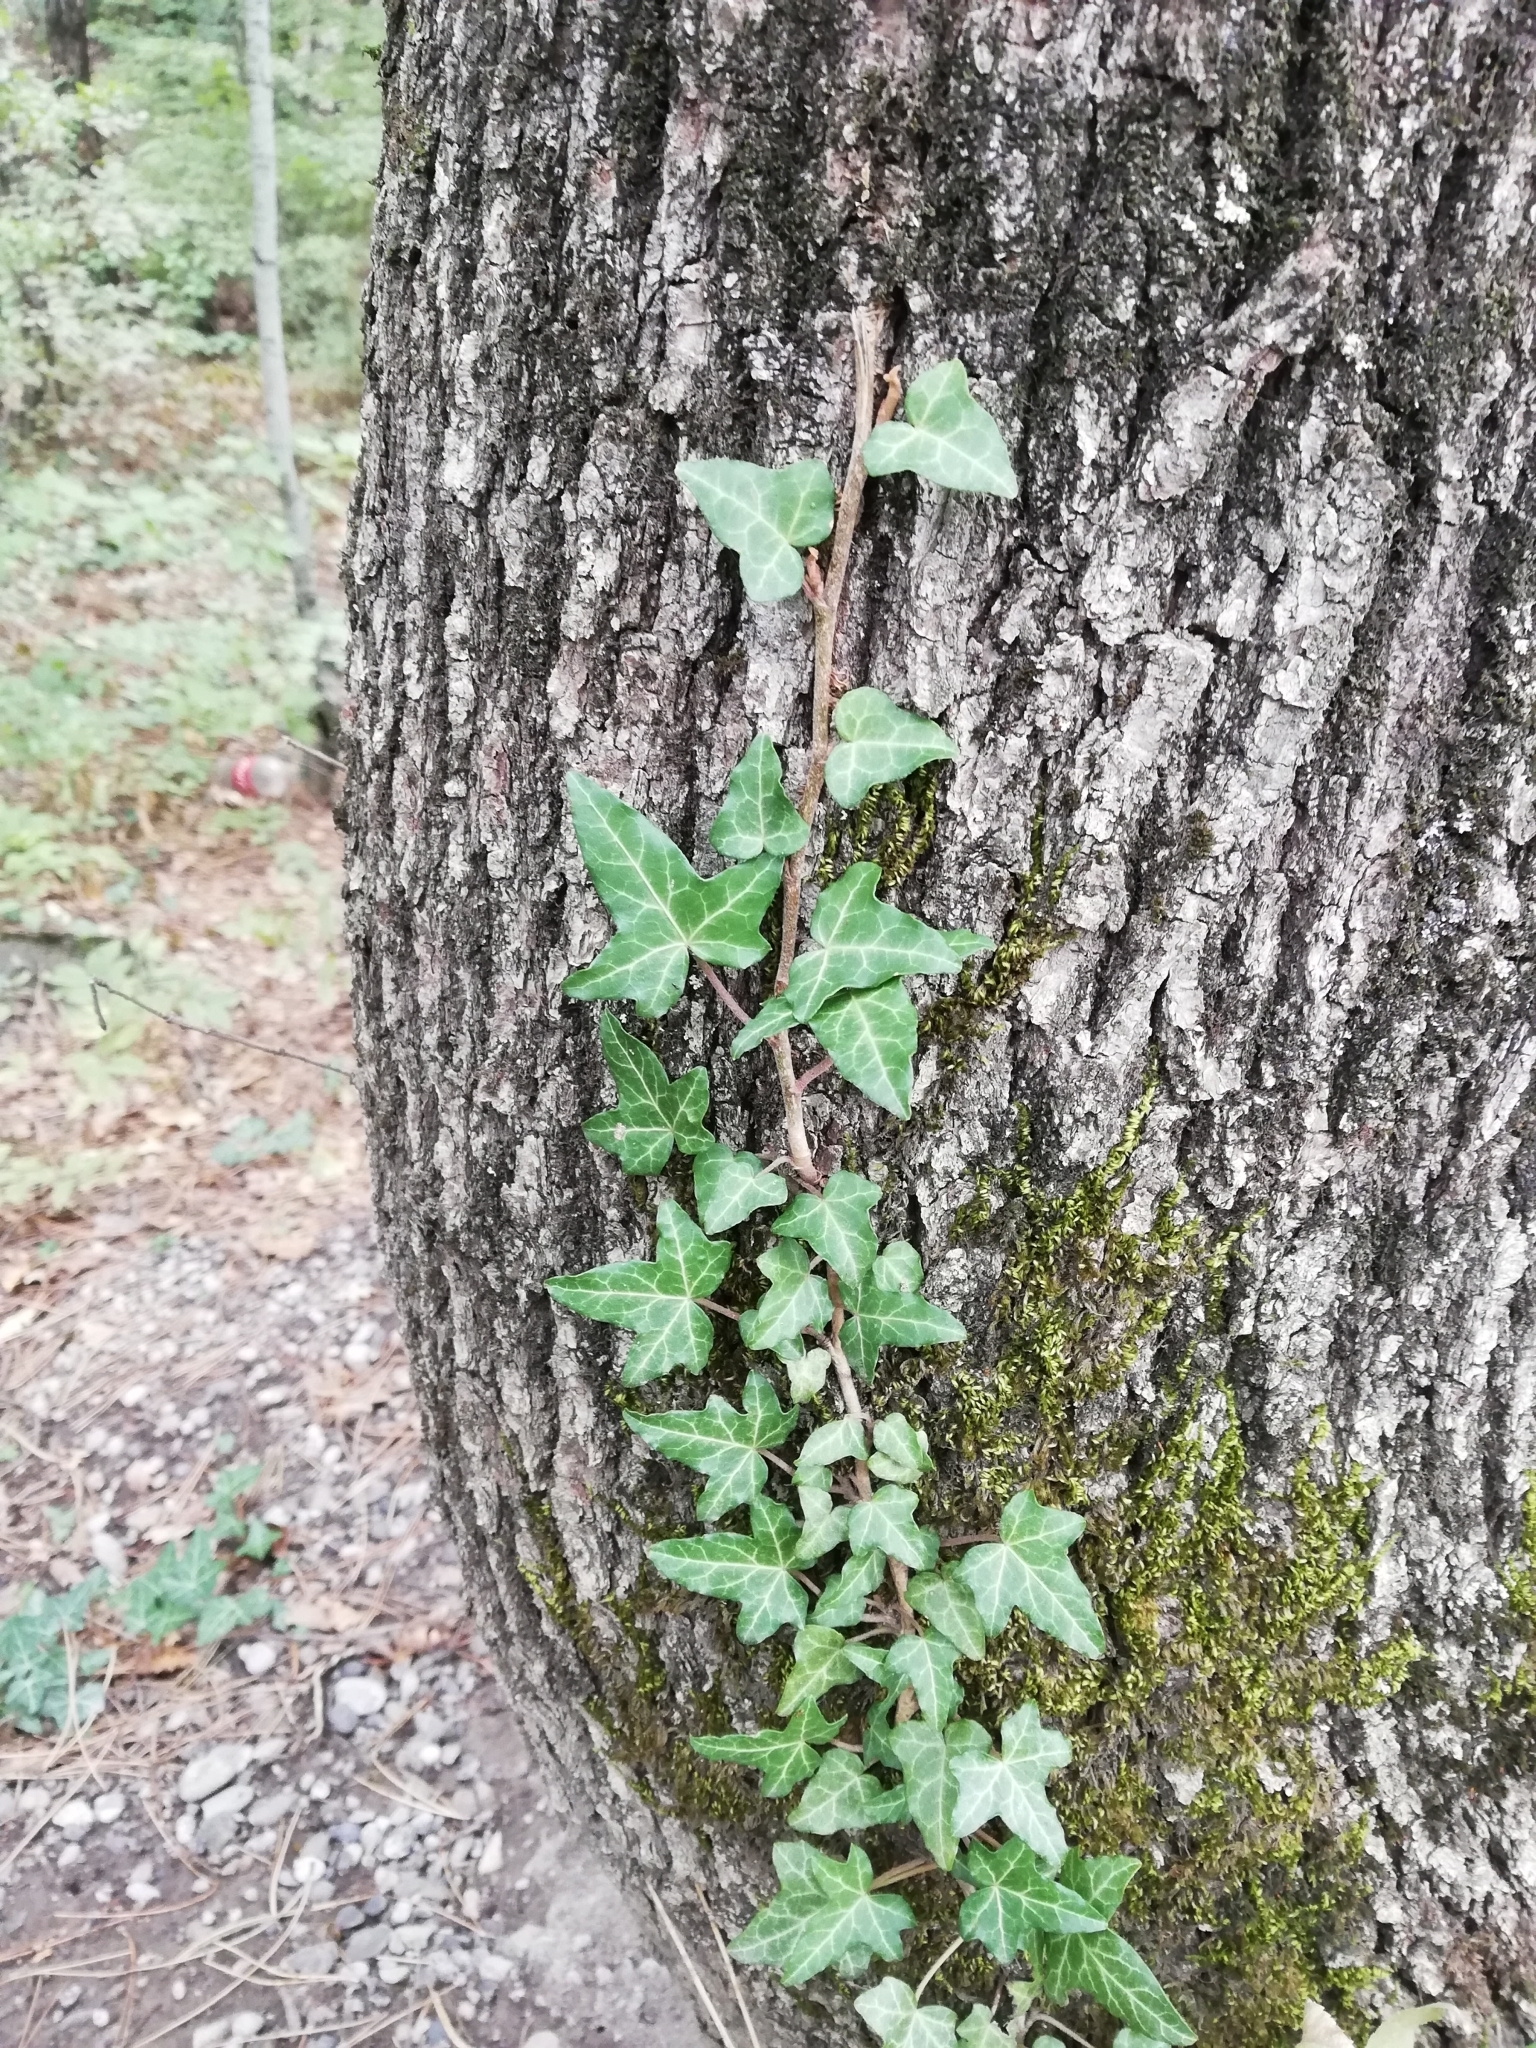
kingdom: Plantae
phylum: Tracheophyta
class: Magnoliopsida
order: Apiales
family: Araliaceae
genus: Hedera
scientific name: Hedera helix
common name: Ivy
